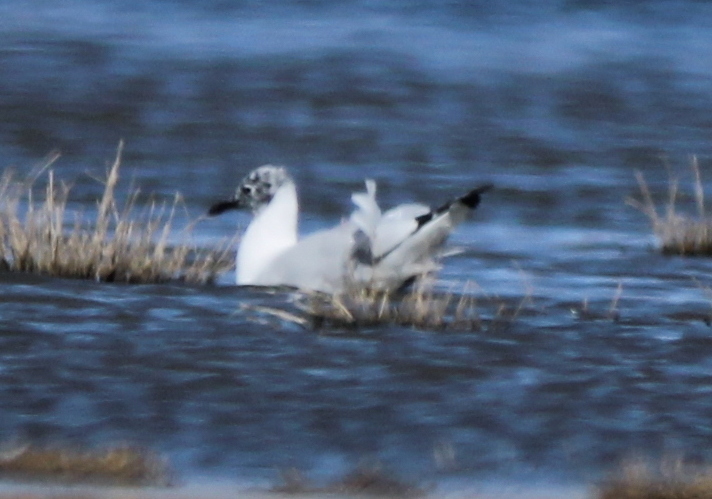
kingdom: Animalia
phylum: Chordata
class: Aves
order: Charadriiformes
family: Laridae
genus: Chroicocephalus
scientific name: Chroicocephalus serranus
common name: Andean gull
